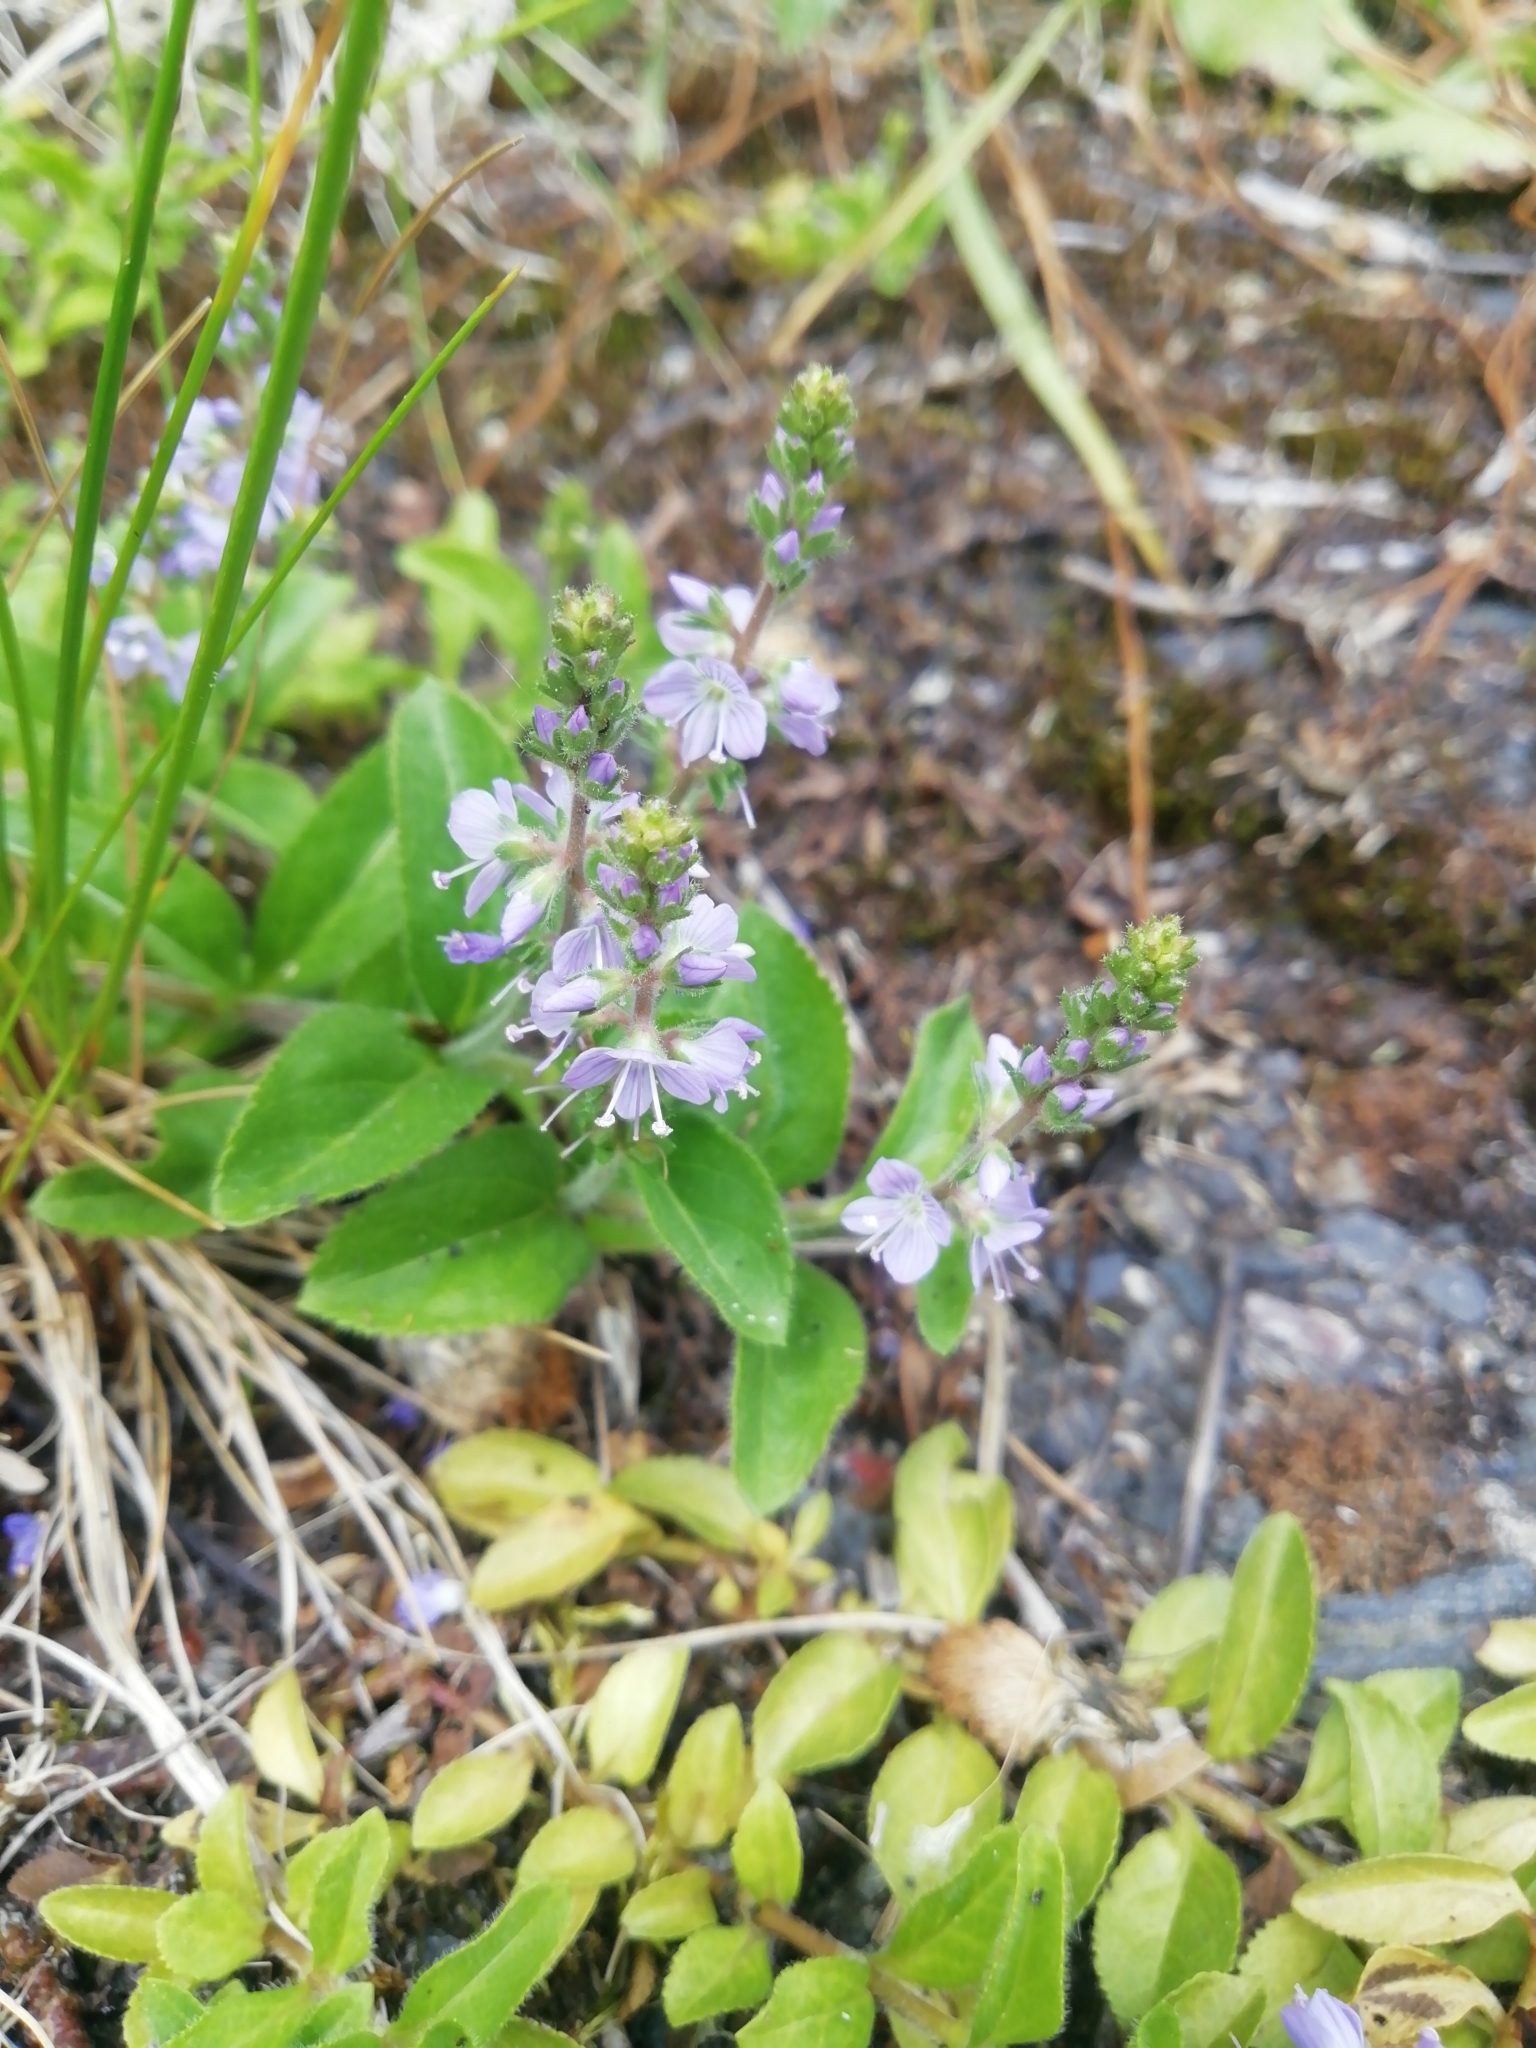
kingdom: Plantae
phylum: Tracheophyta
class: Magnoliopsida
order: Lamiales
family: Plantaginaceae
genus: Veronica
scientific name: Veronica officinalis
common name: Common speedwell
